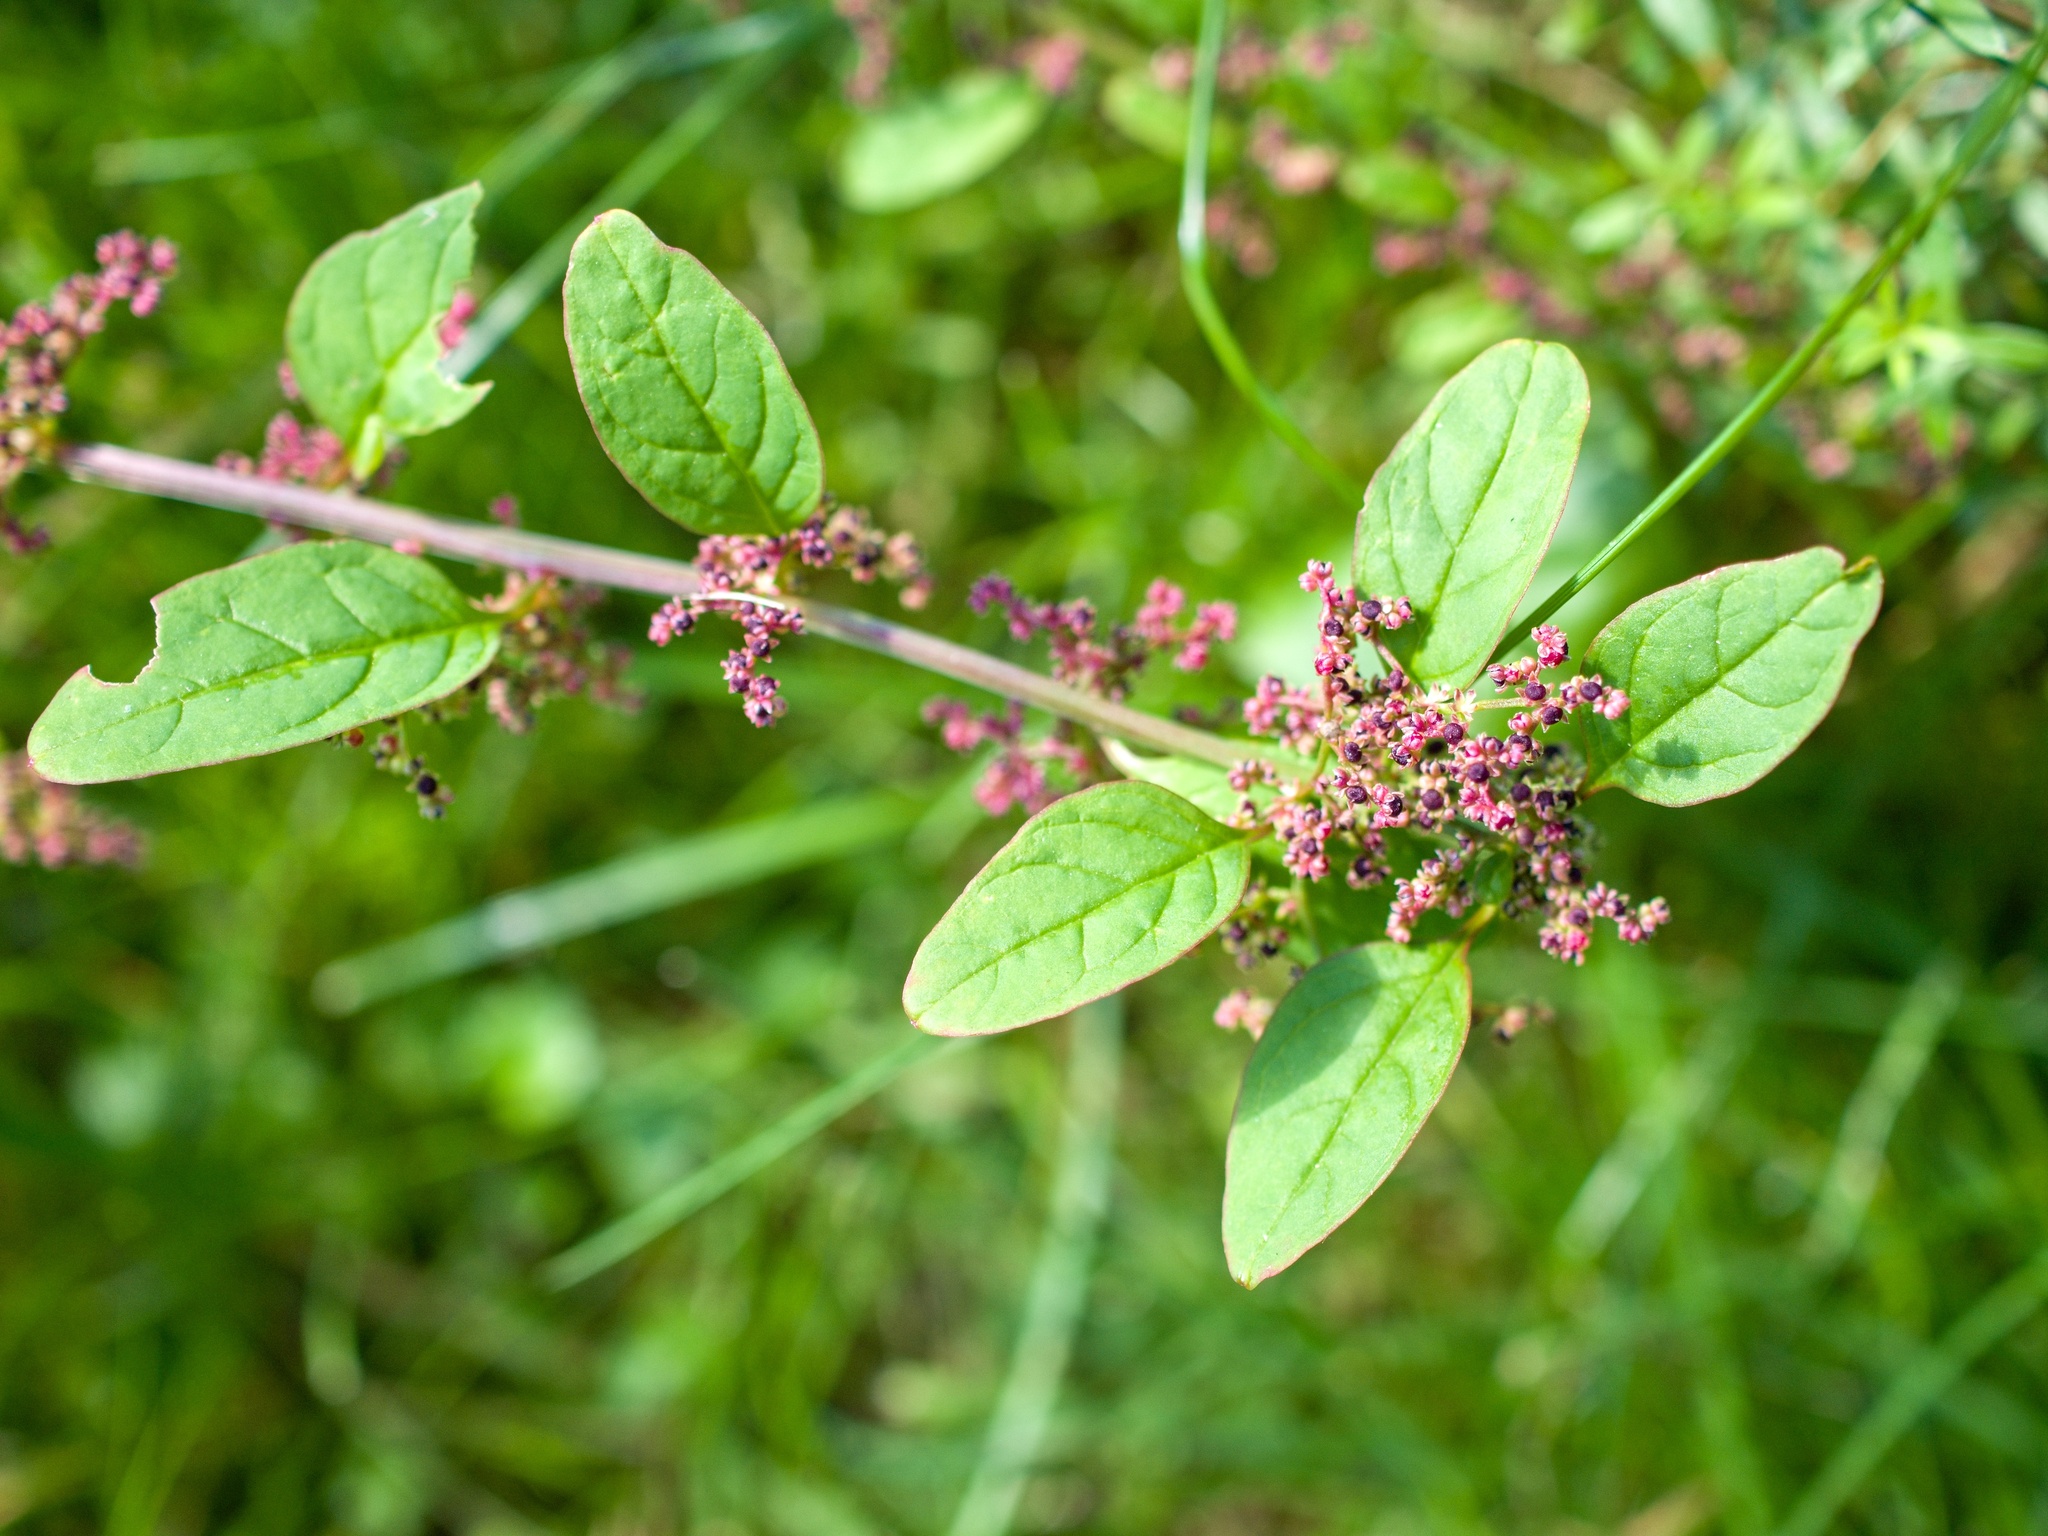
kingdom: Plantae
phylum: Tracheophyta
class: Magnoliopsida
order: Caryophyllales
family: Amaranthaceae
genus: Lipandra
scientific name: Lipandra polysperma
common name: Many-seed goosefoot
